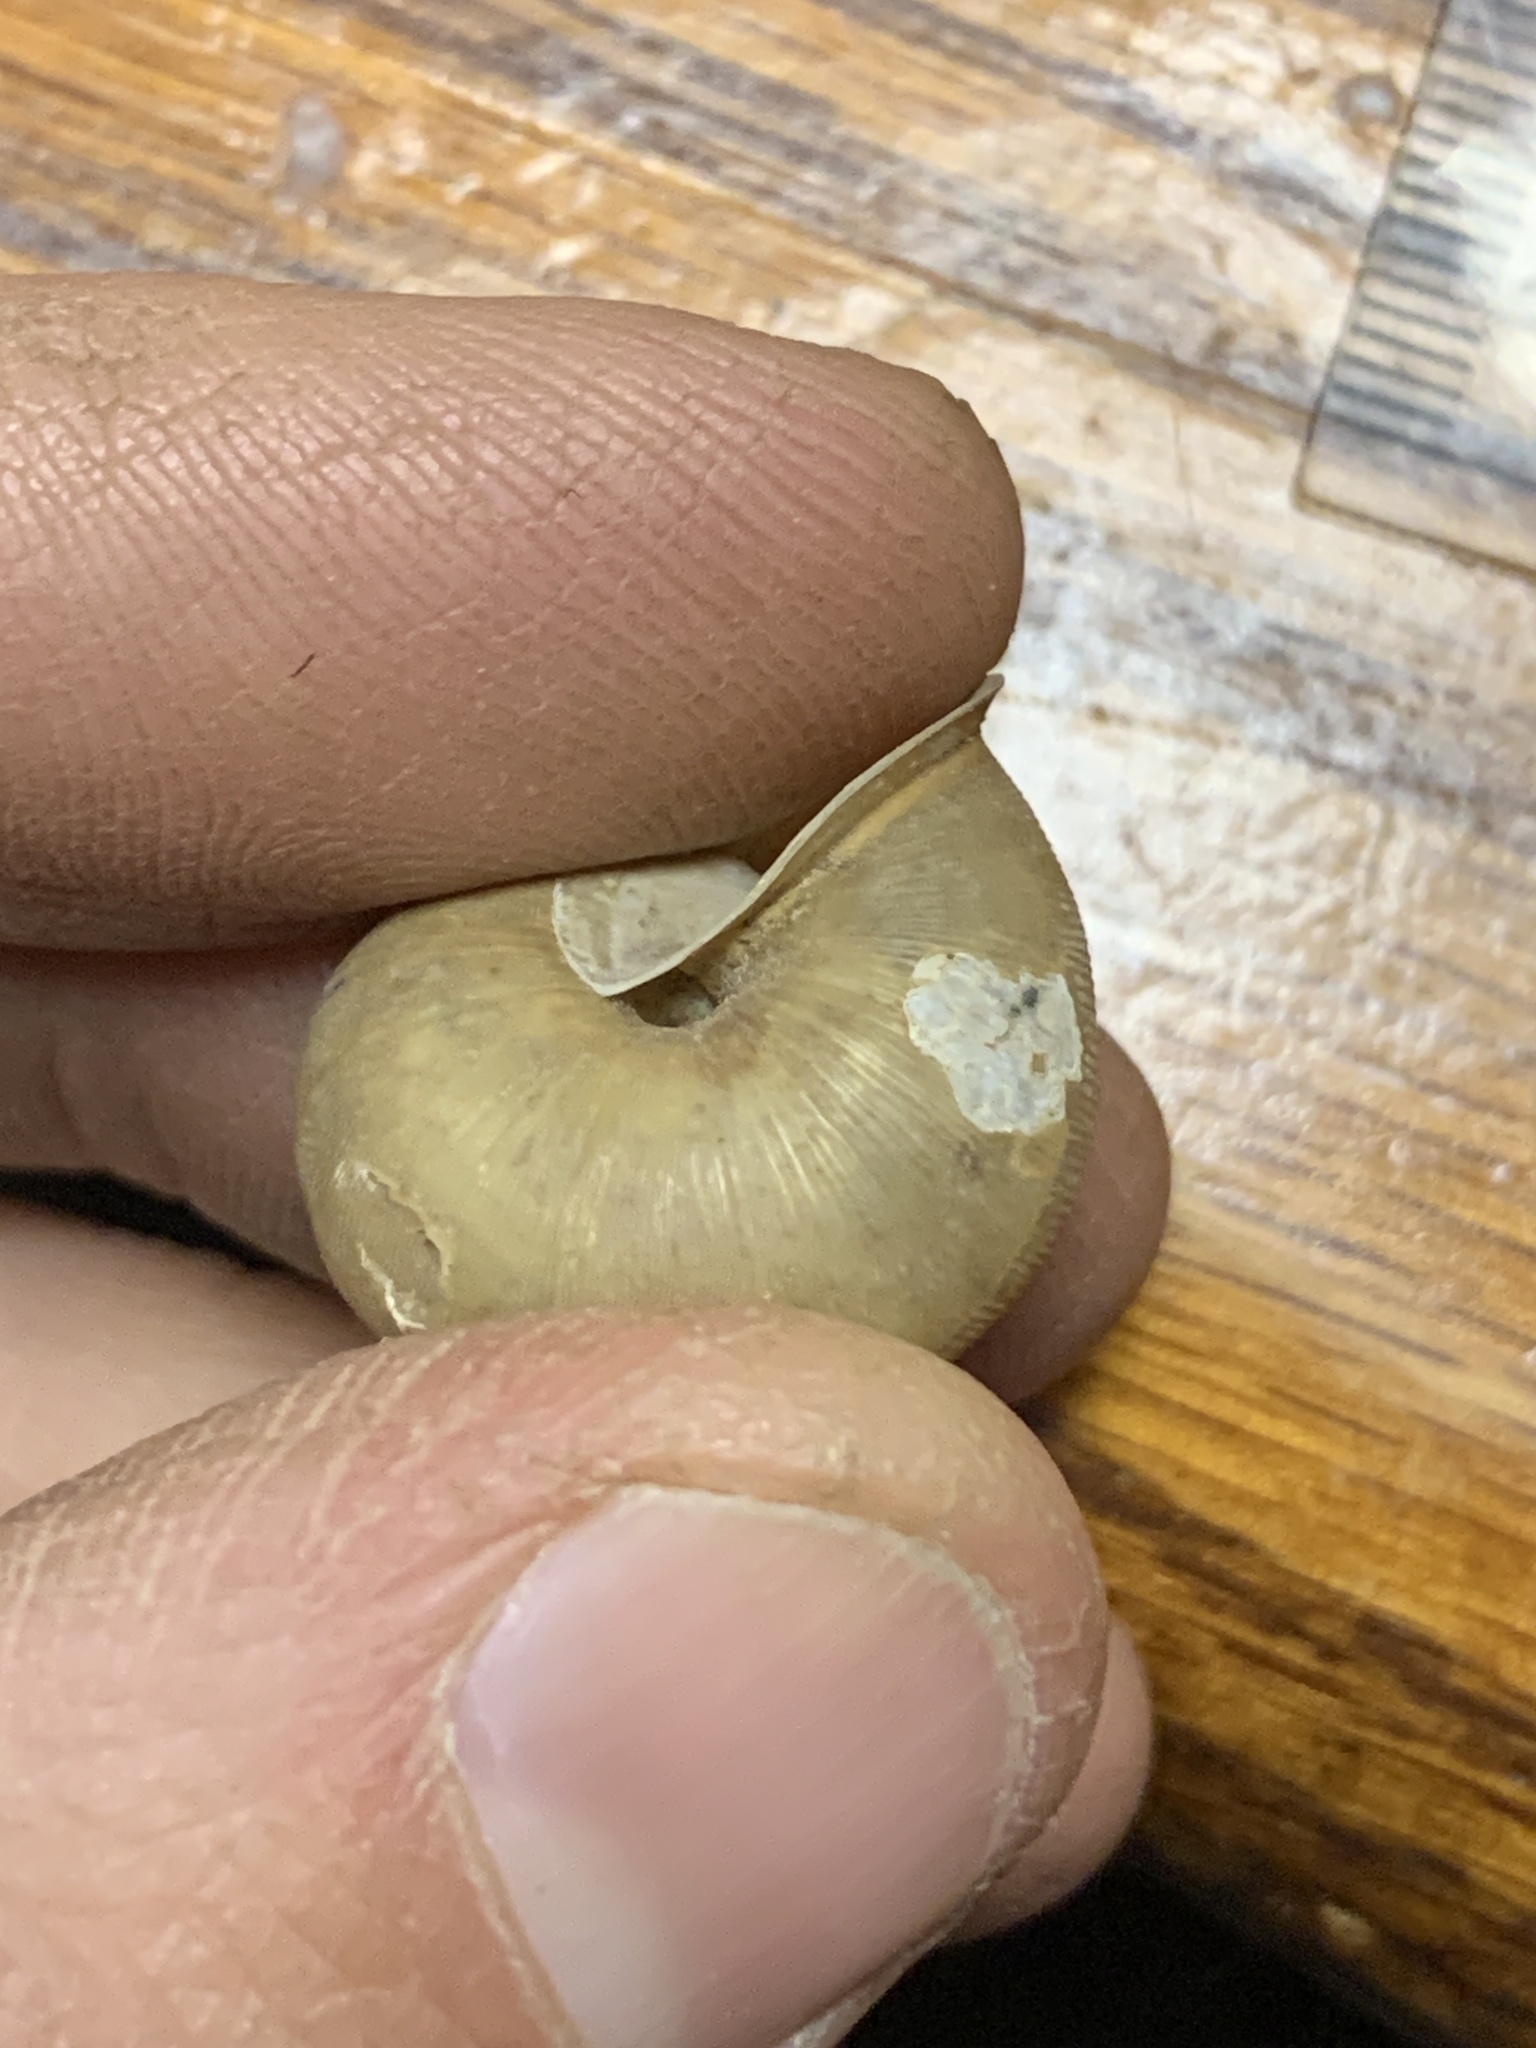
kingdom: Animalia
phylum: Mollusca
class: Gastropoda
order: Stylommatophora
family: Polygyridae
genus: Mesodon
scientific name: Mesodon thyroidus
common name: White-lip globe
